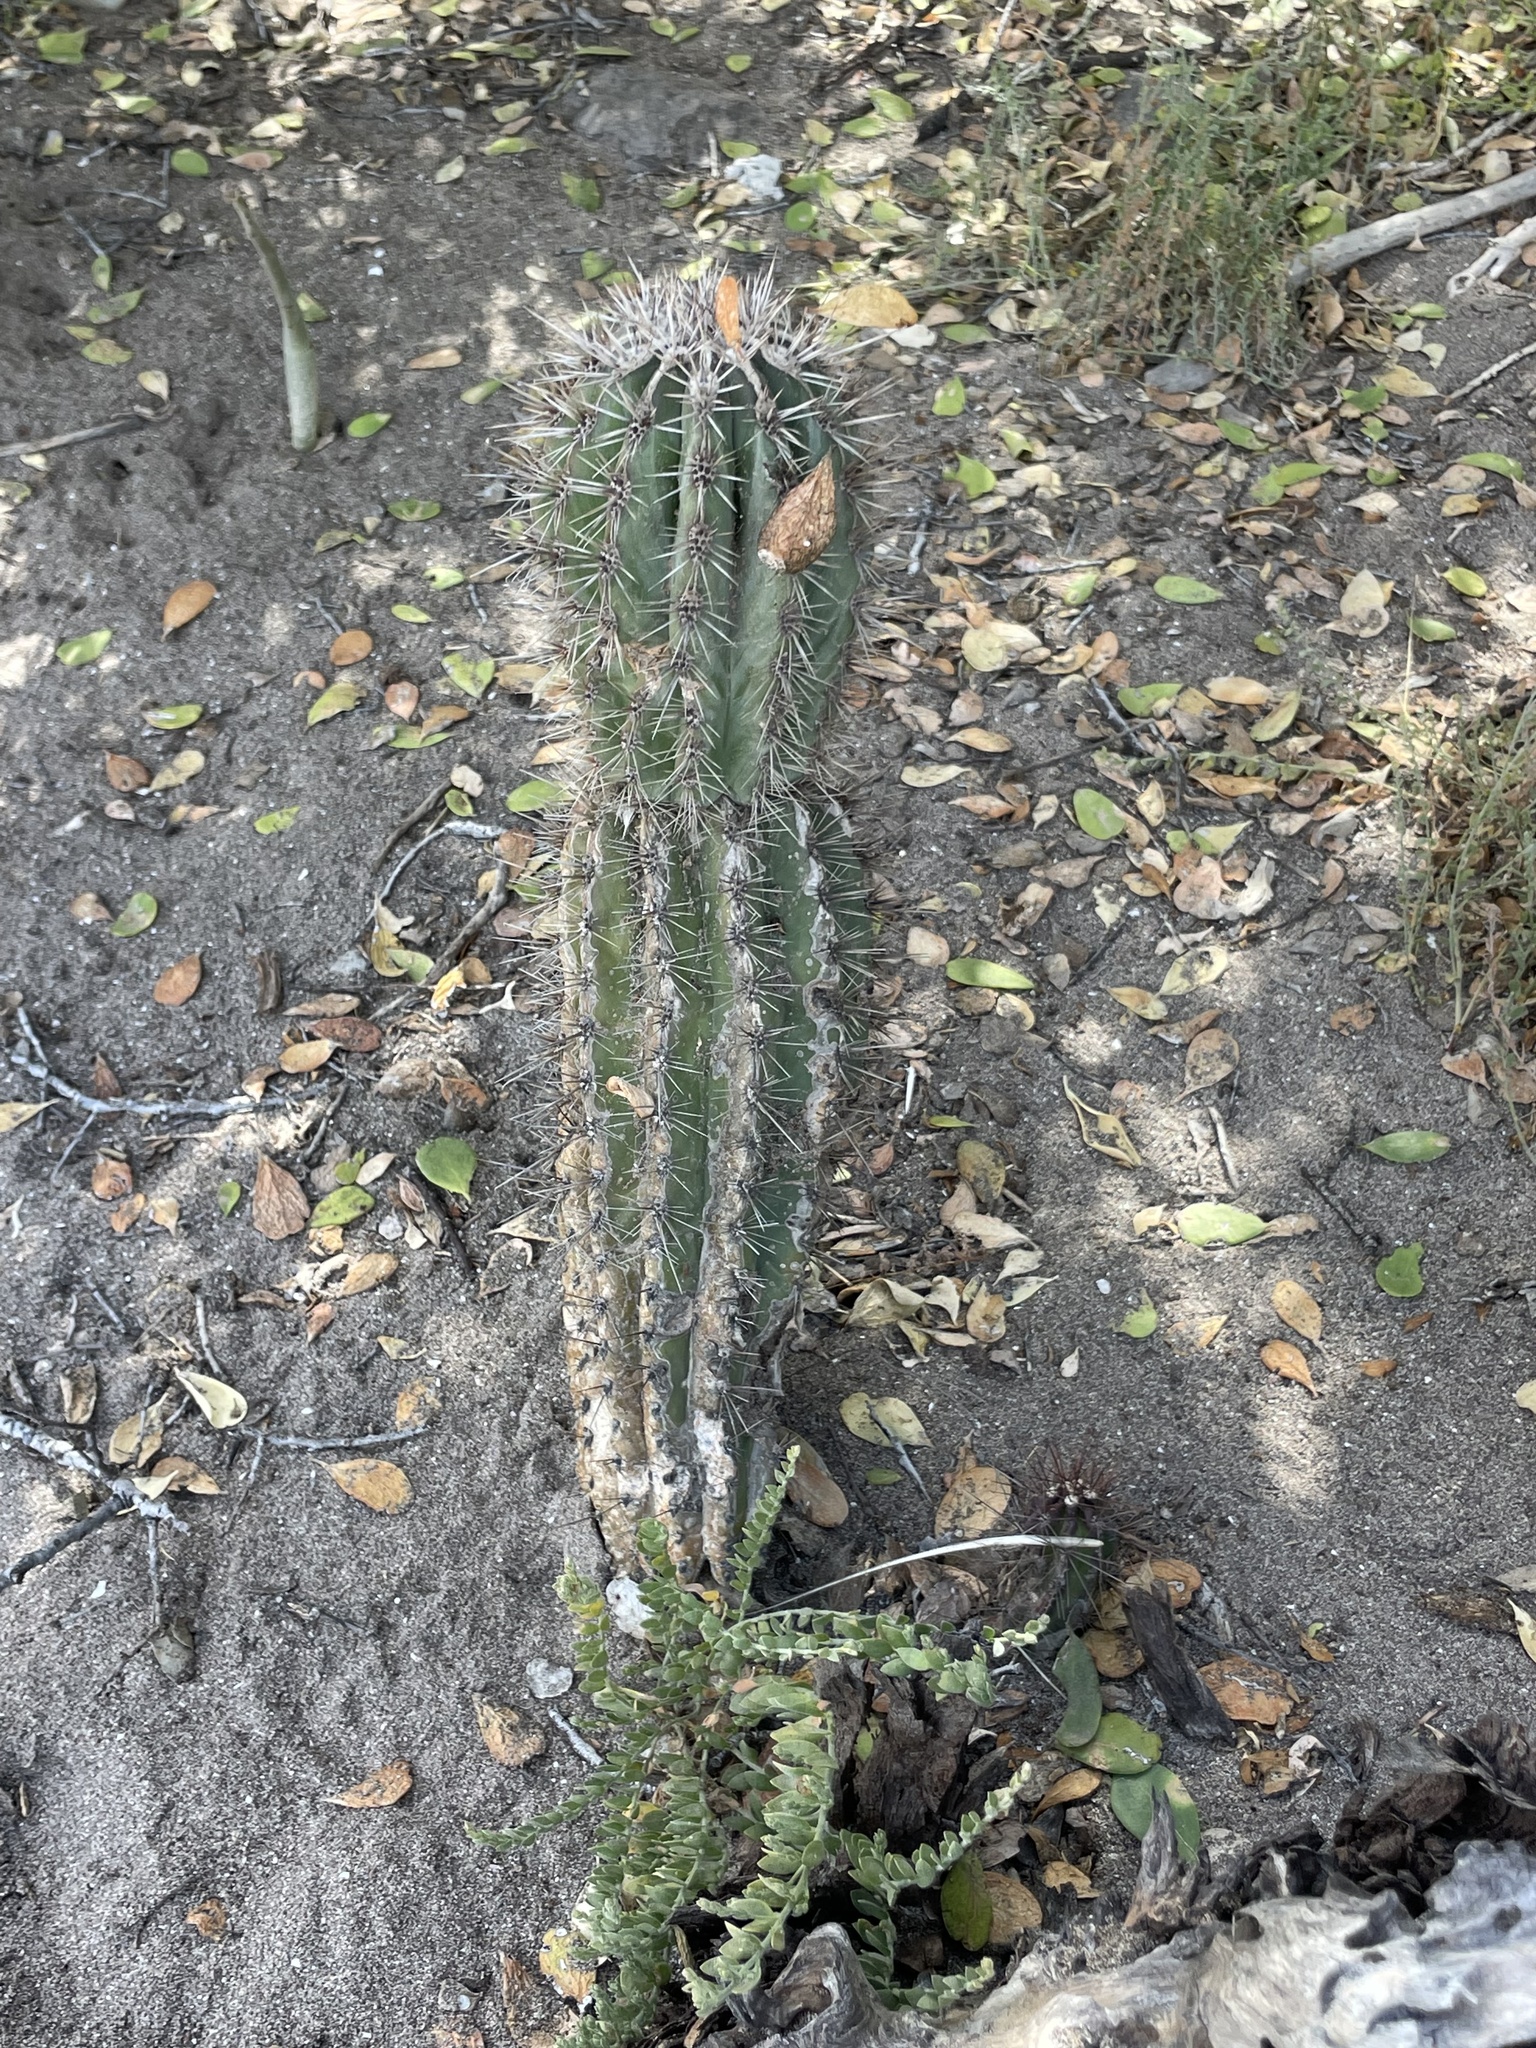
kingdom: Plantae
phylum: Tracheophyta
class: Magnoliopsida
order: Caryophyllales
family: Cactaceae
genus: Pachycereus
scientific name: Pachycereus pringlei
